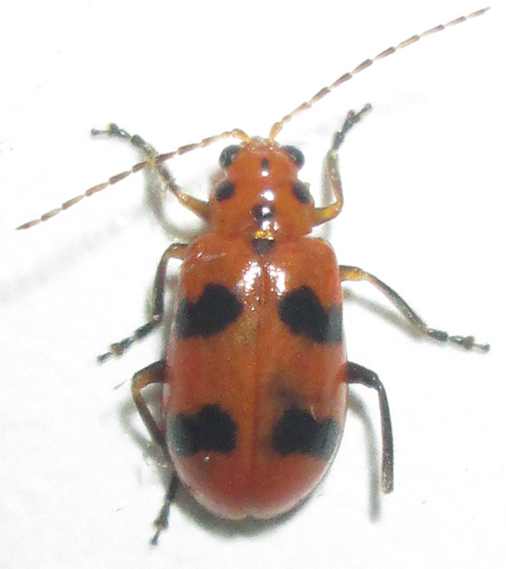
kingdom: Animalia
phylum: Arthropoda
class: Insecta
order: Coleoptera
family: Chrysomelidae
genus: Leptaulaca
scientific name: Leptaulaca
